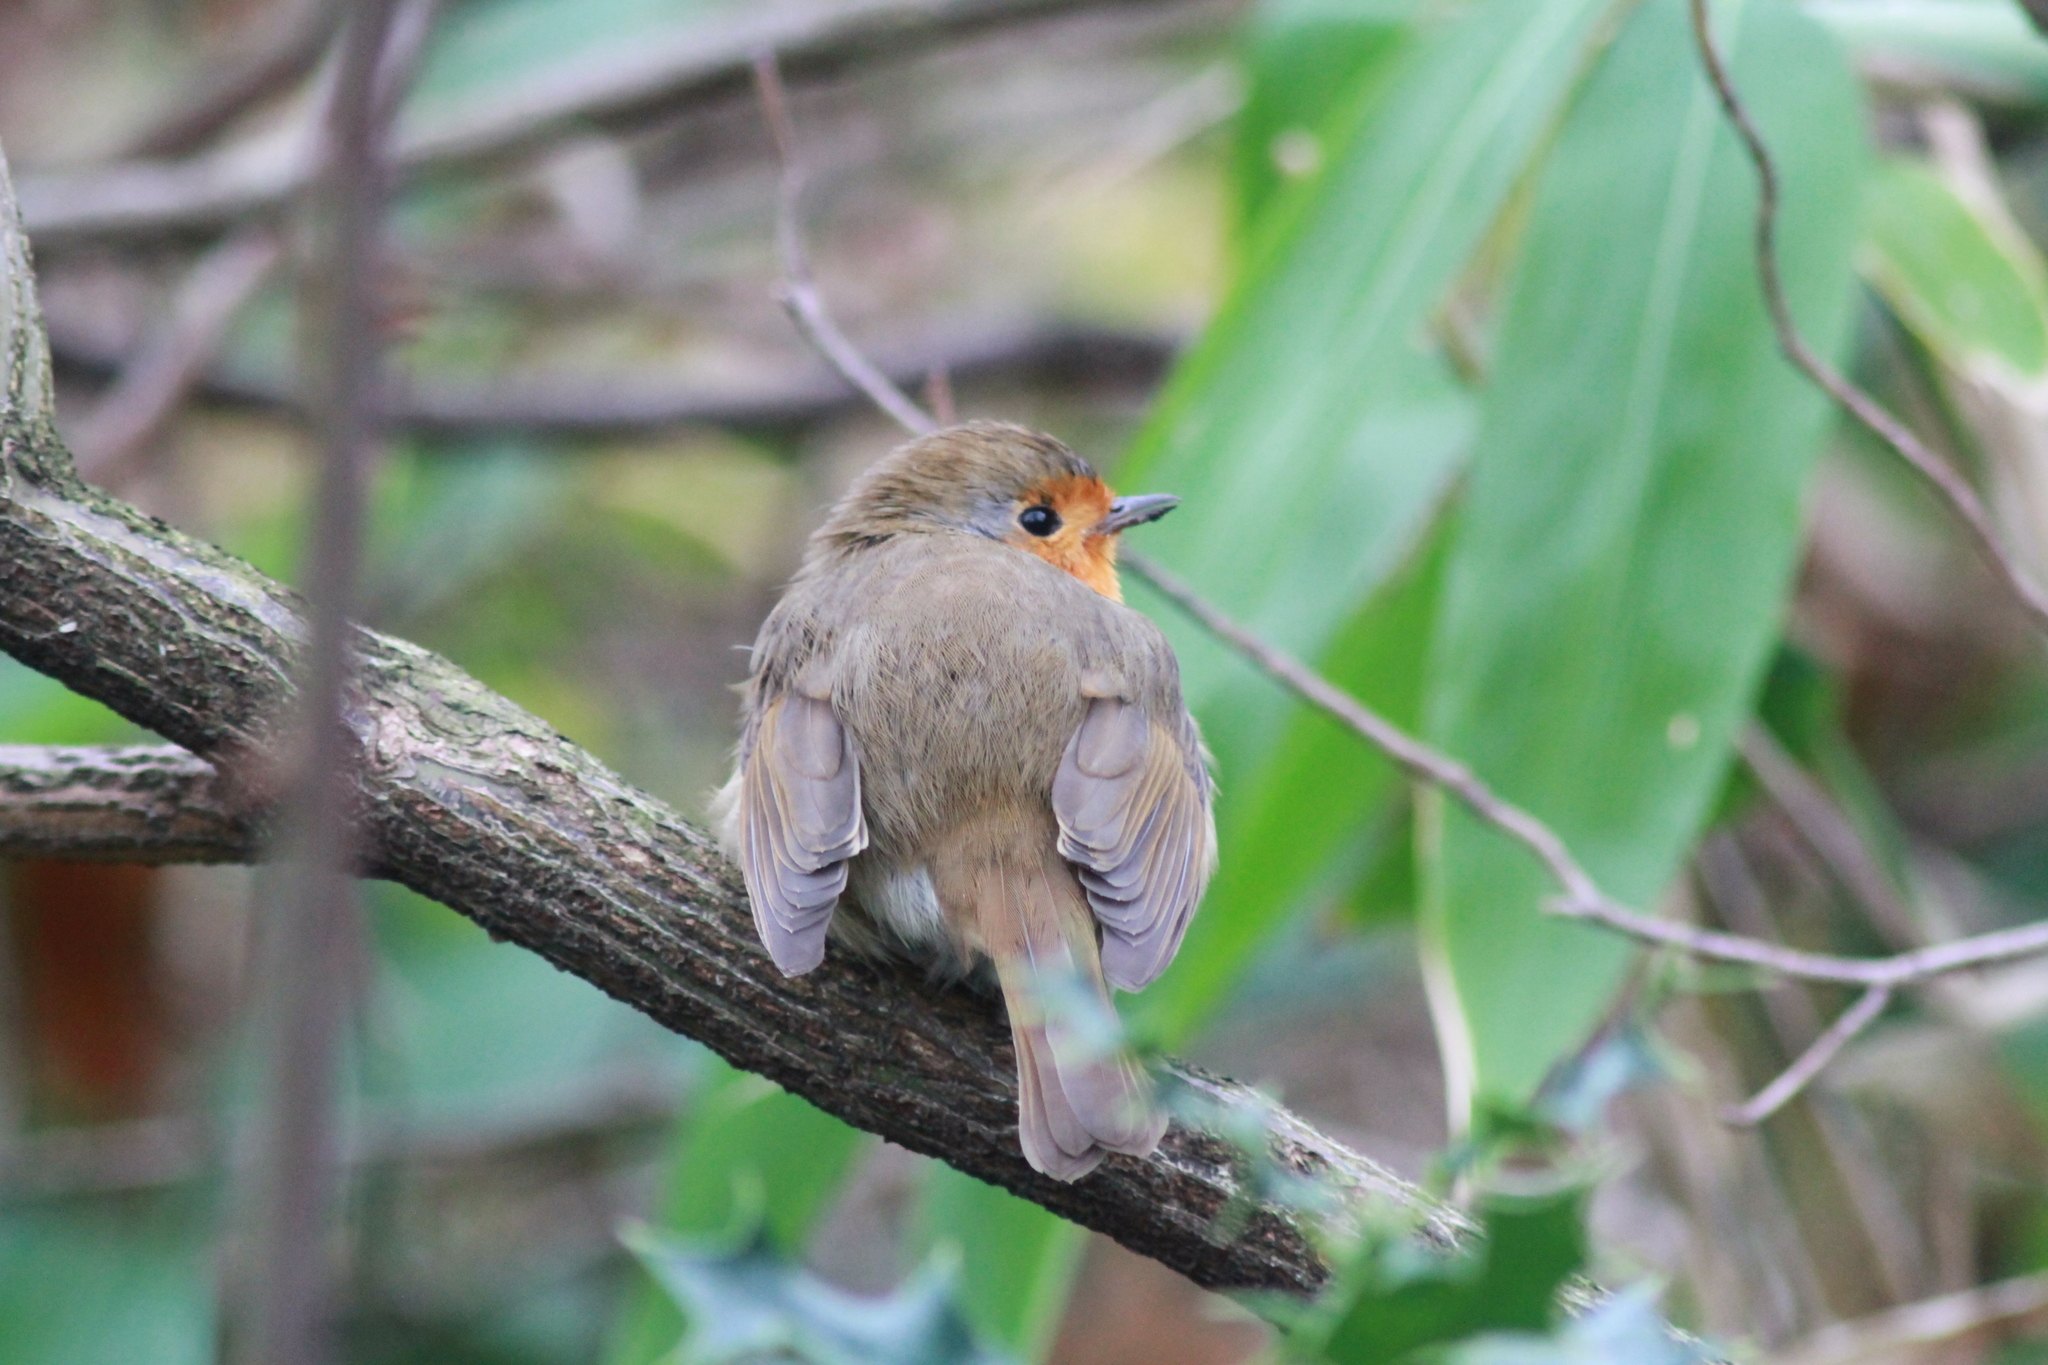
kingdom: Animalia
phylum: Chordata
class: Aves
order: Passeriformes
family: Muscicapidae
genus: Erithacus
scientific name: Erithacus rubecula
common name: European robin
